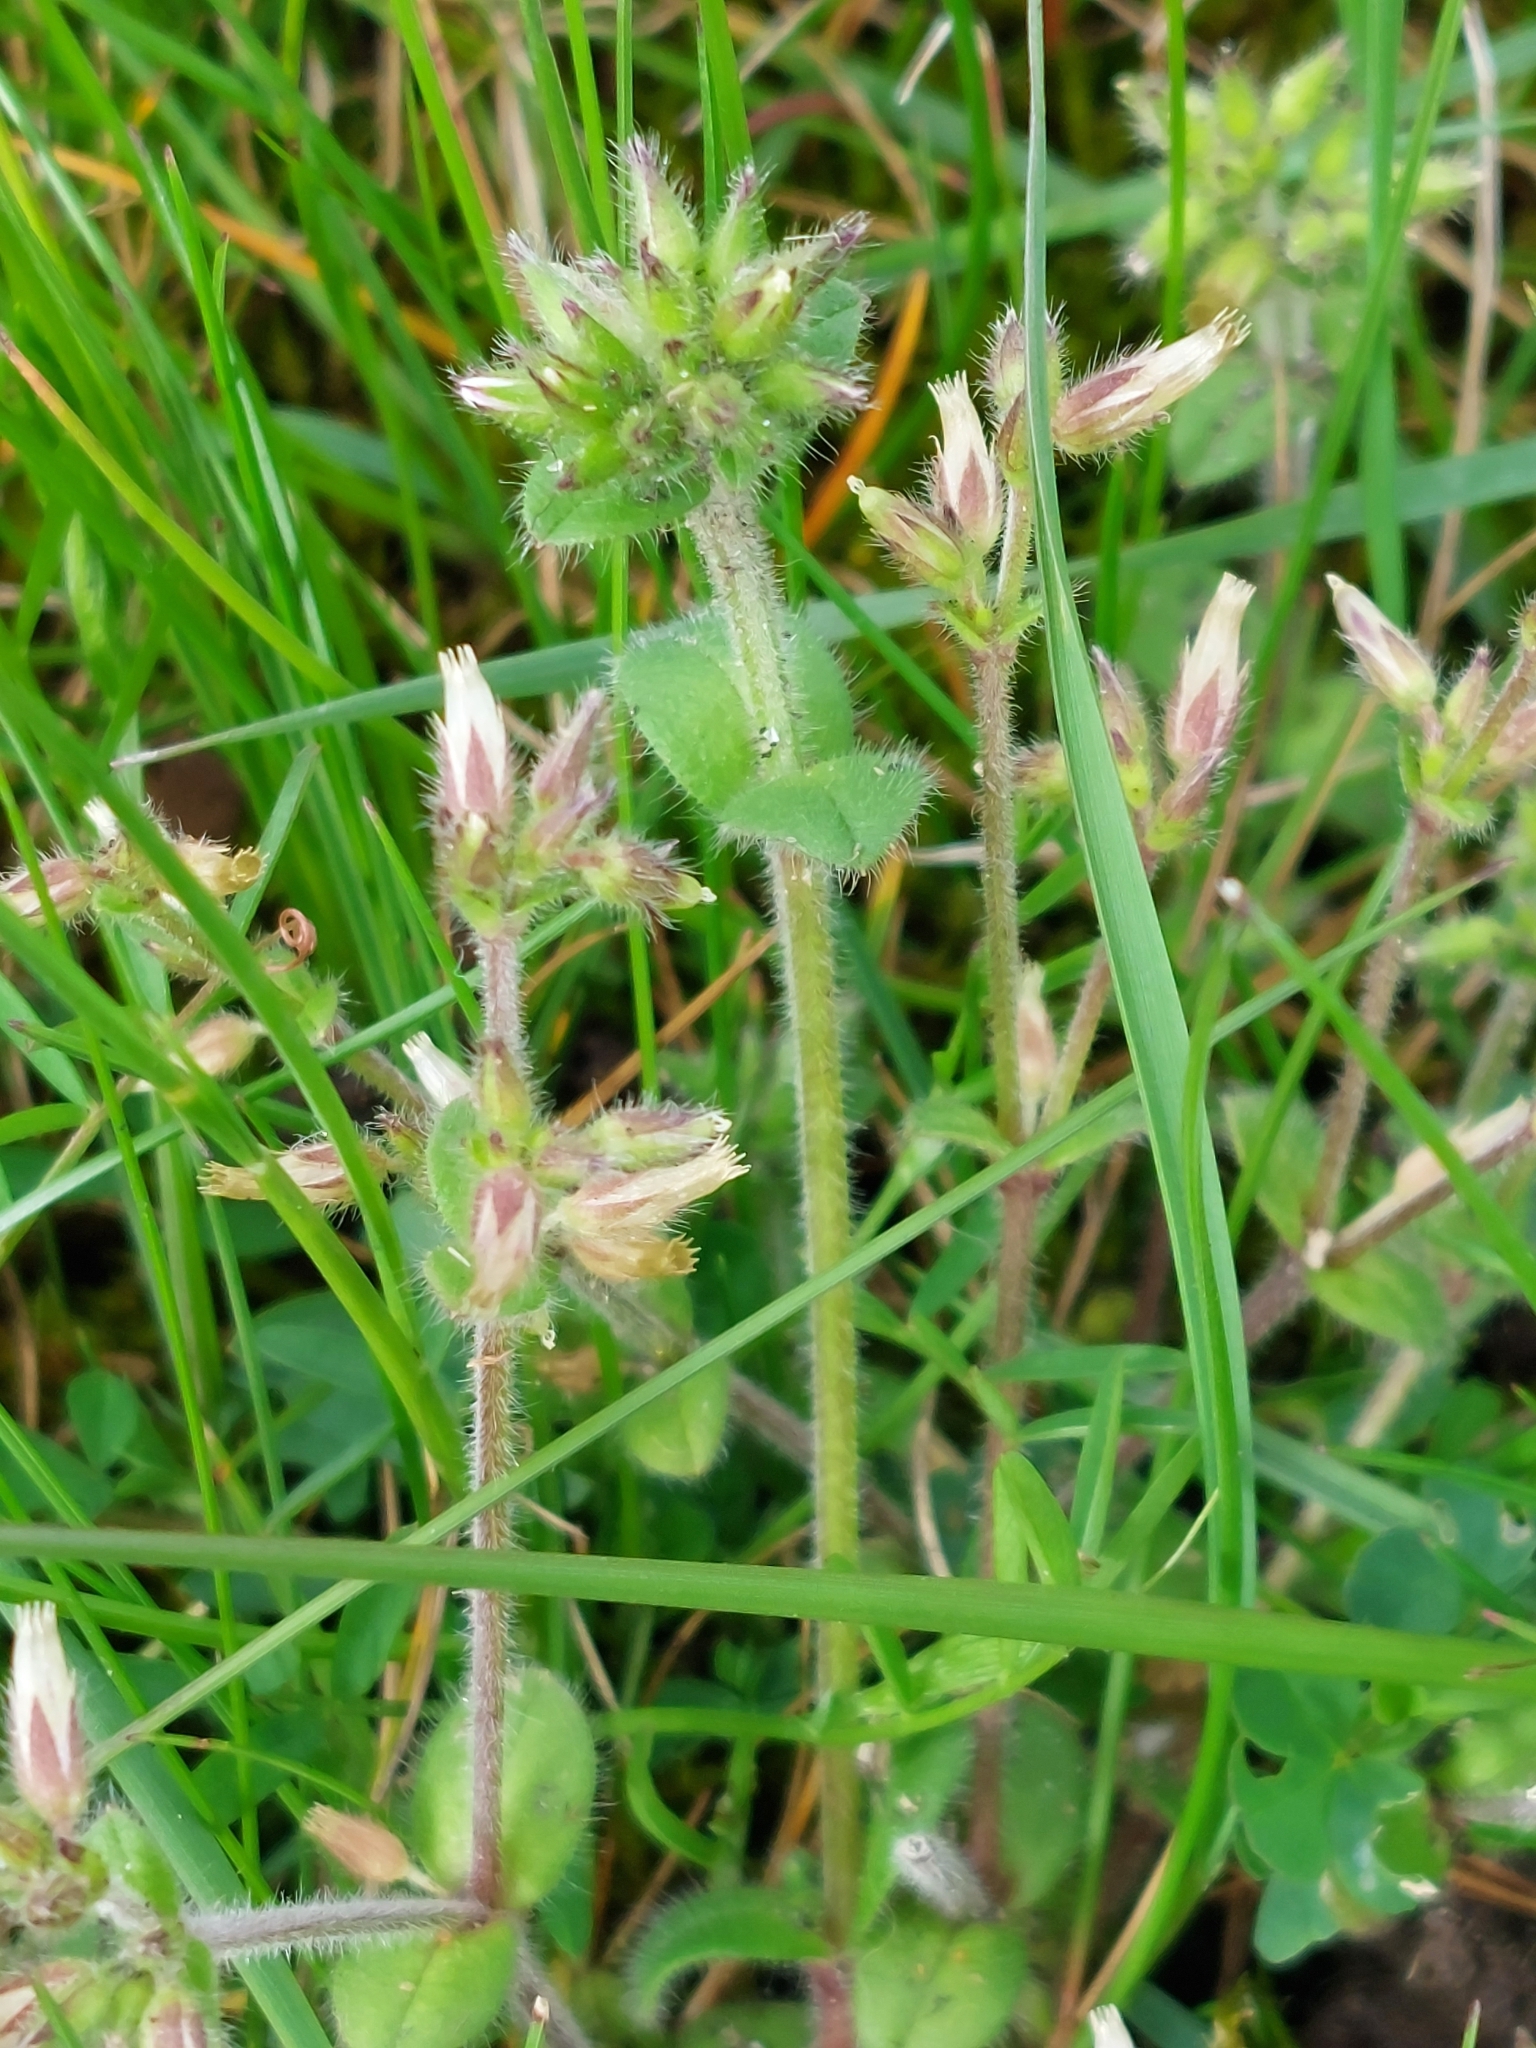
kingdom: Plantae
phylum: Tracheophyta
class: Magnoliopsida
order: Caryophyllales
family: Caryophyllaceae
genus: Cerastium
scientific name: Cerastium glomeratum
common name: Sticky chickweed
